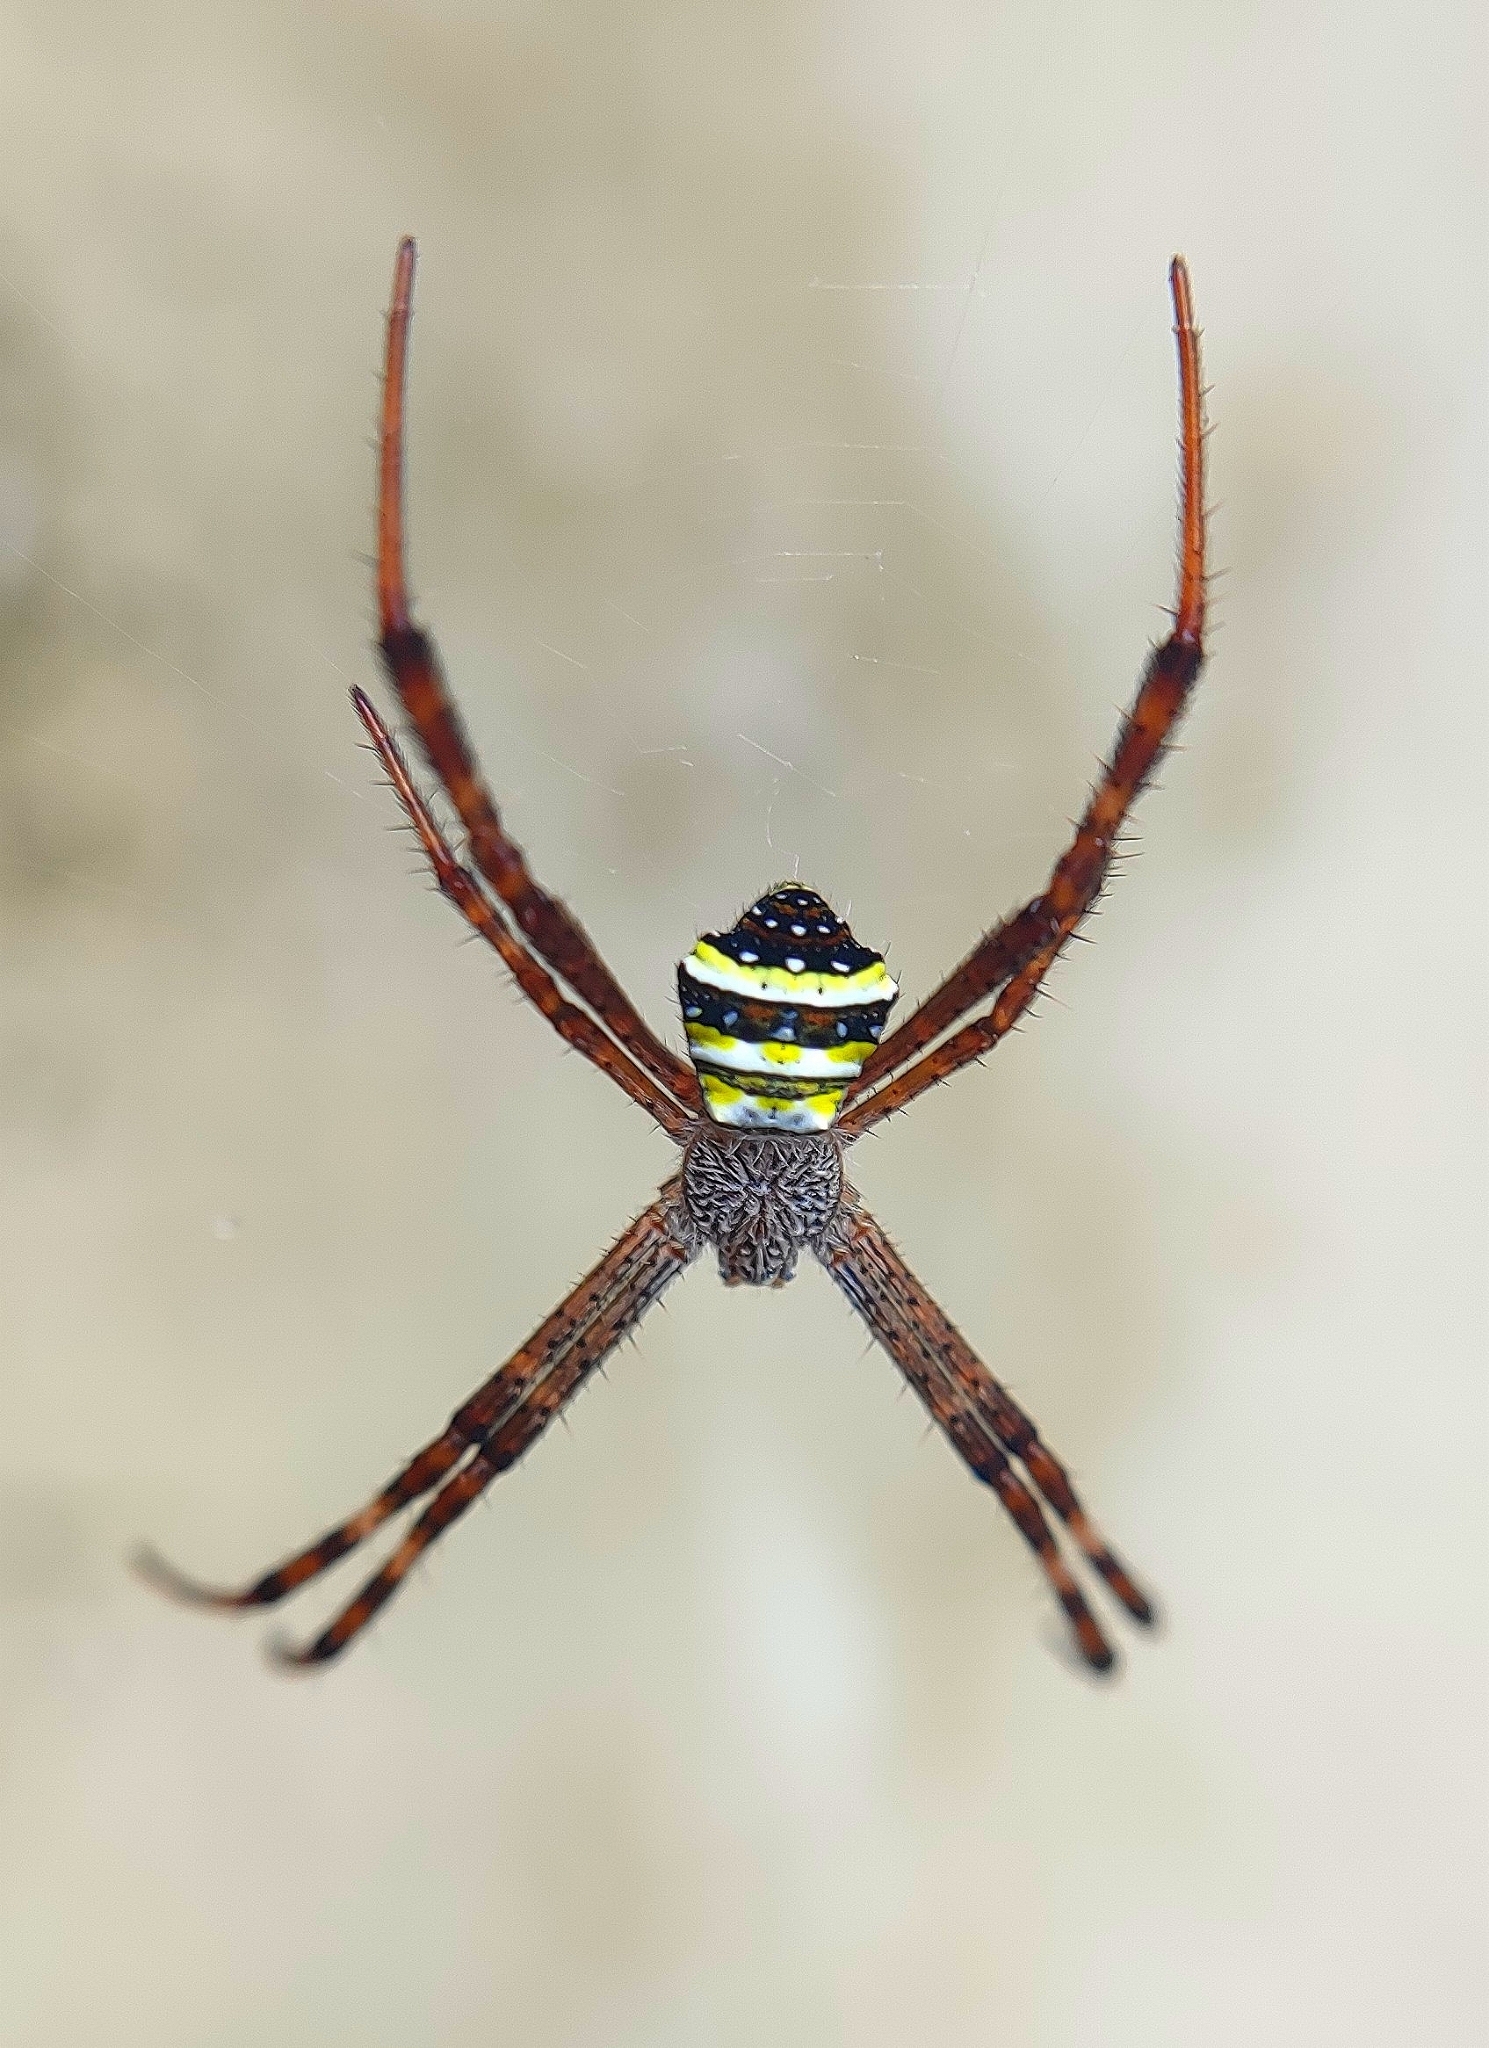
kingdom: Animalia
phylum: Arthropoda
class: Arachnida
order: Araneae
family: Araneidae
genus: Argiope
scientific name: Argiope pulchella
